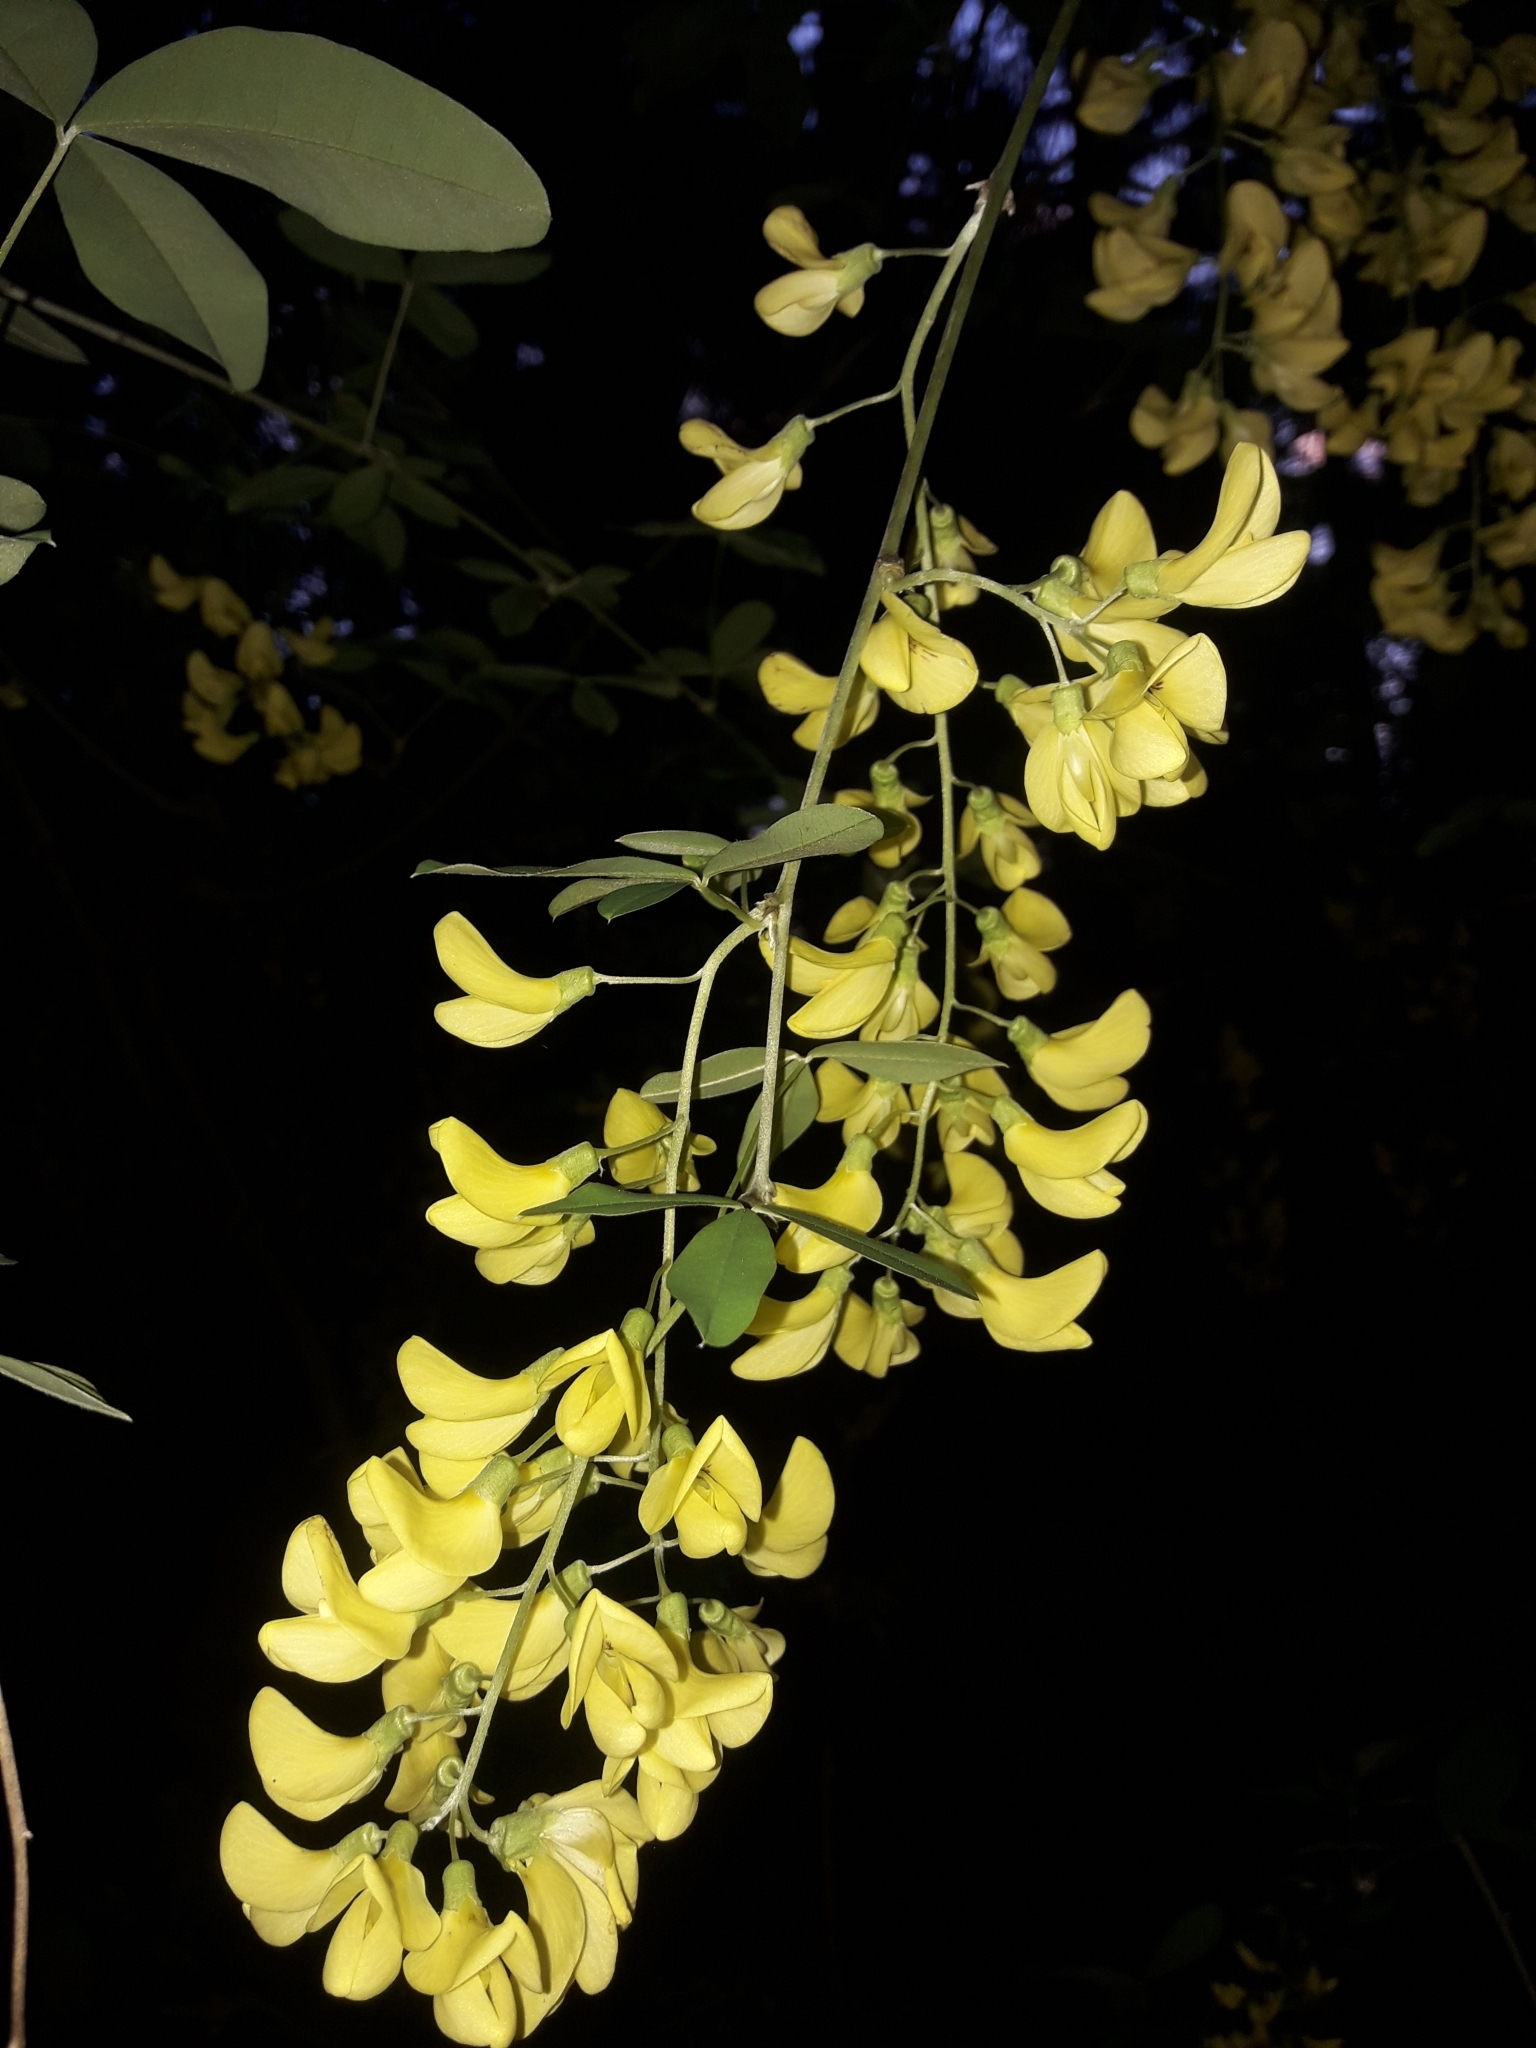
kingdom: Plantae
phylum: Tracheophyta
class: Magnoliopsida
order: Fabales
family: Fabaceae
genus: Laburnum
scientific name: Laburnum anagyroides
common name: Laburnum
